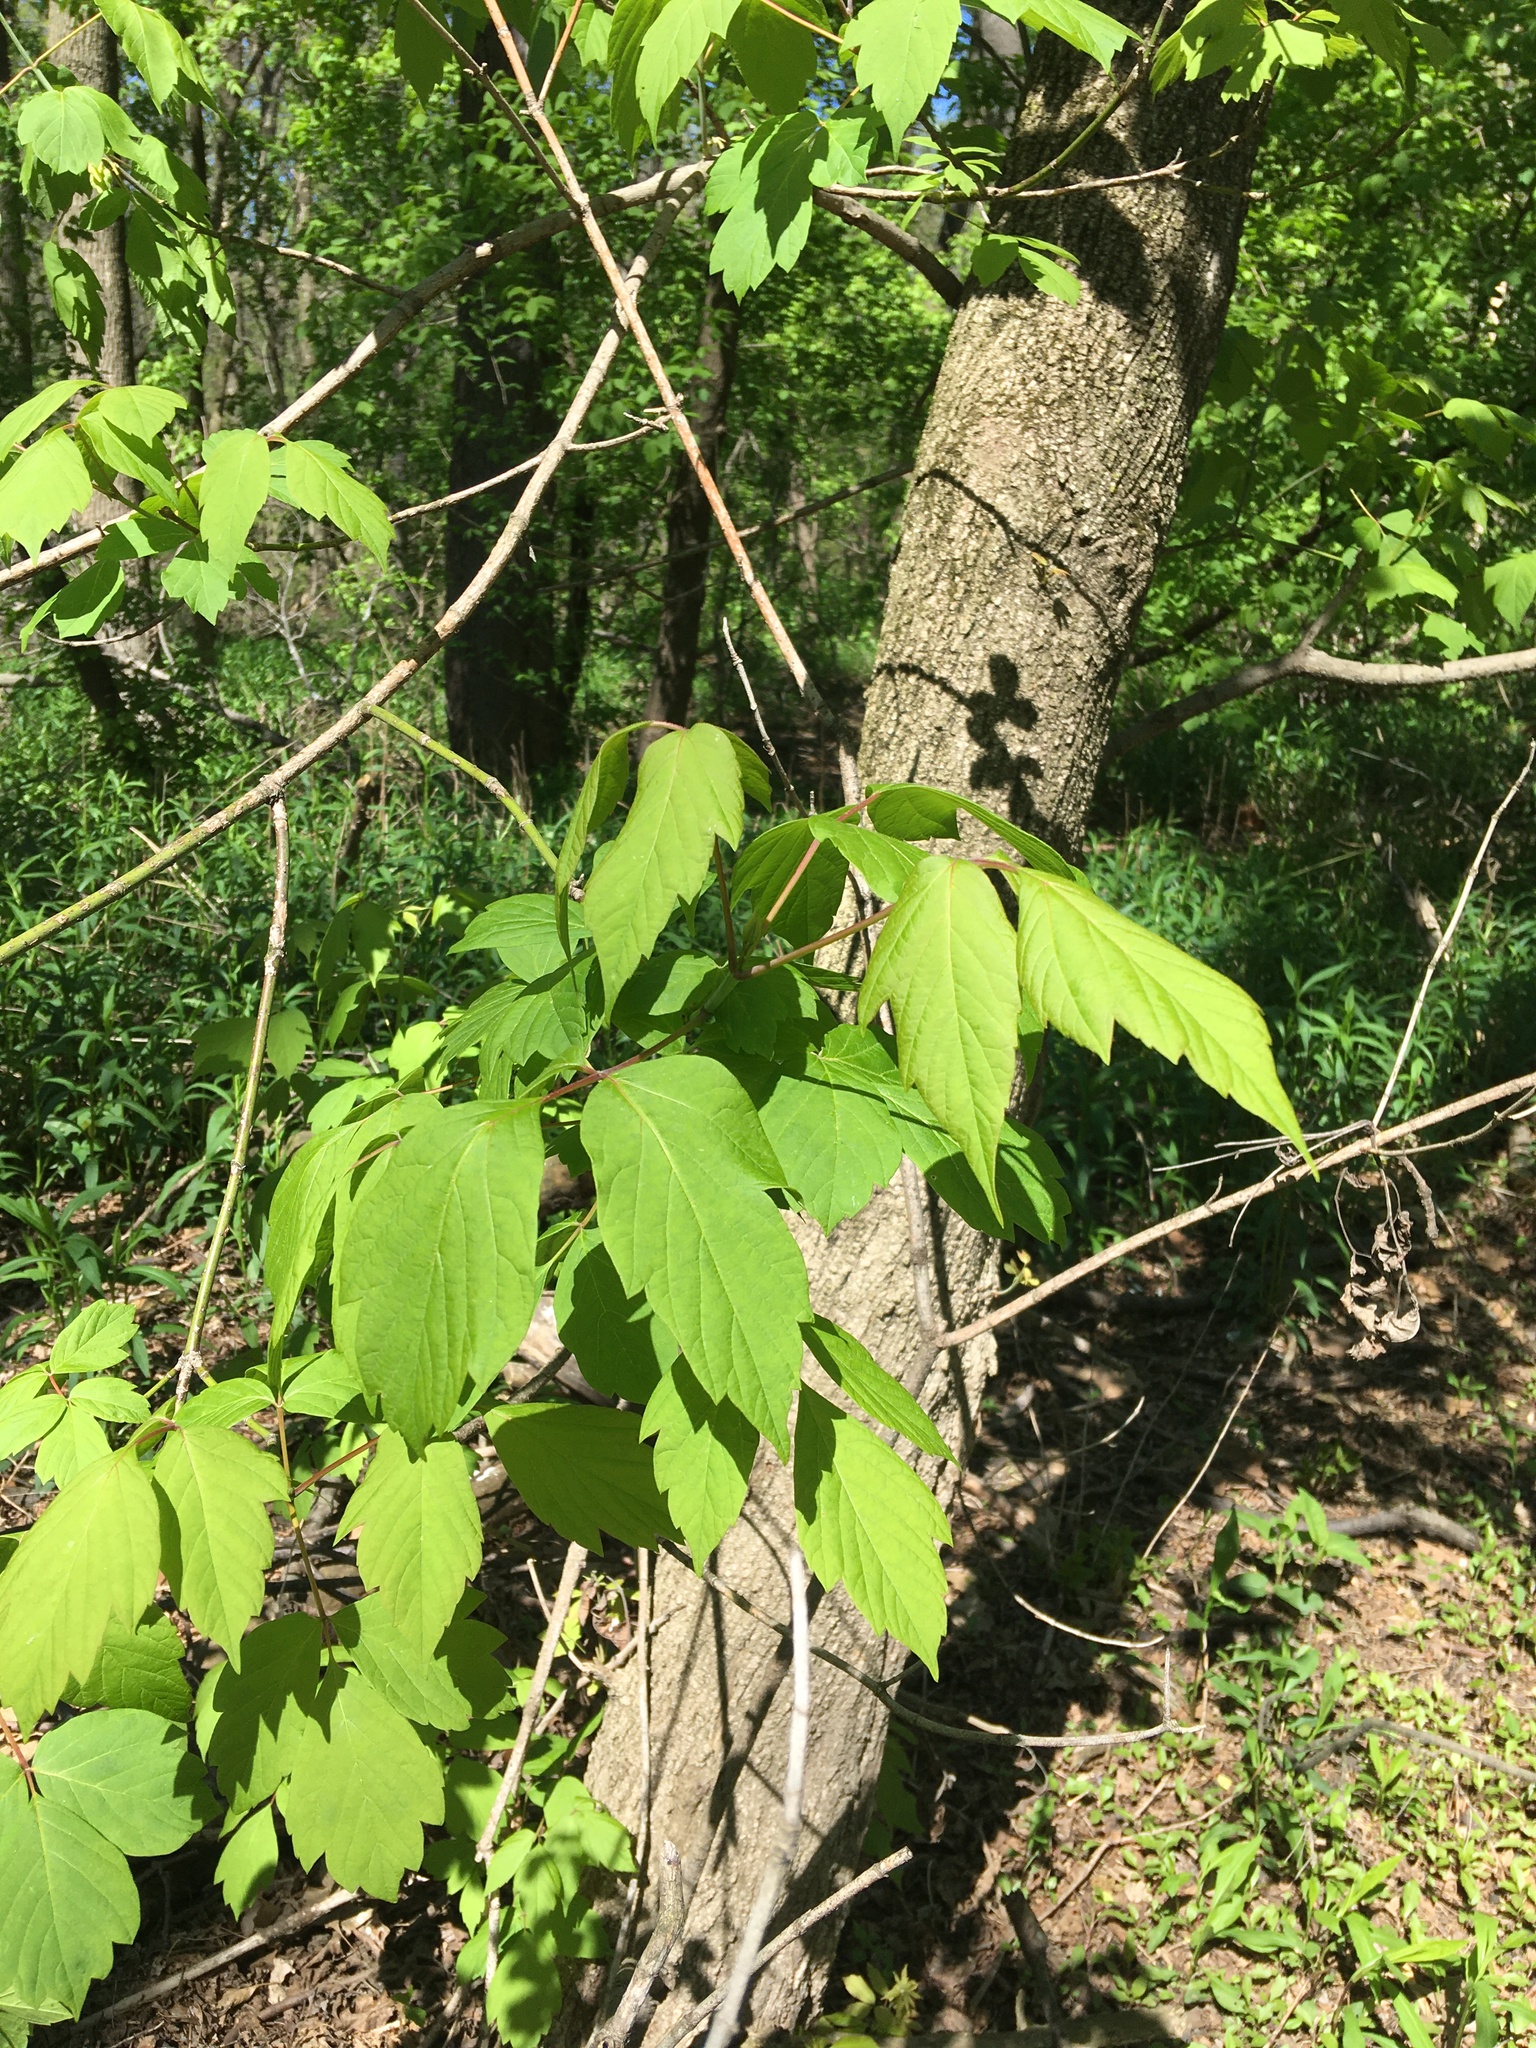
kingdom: Plantae
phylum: Tracheophyta
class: Magnoliopsida
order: Sapindales
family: Sapindaceae
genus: Acer
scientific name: Acer negundo
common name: Ashleaf maple
